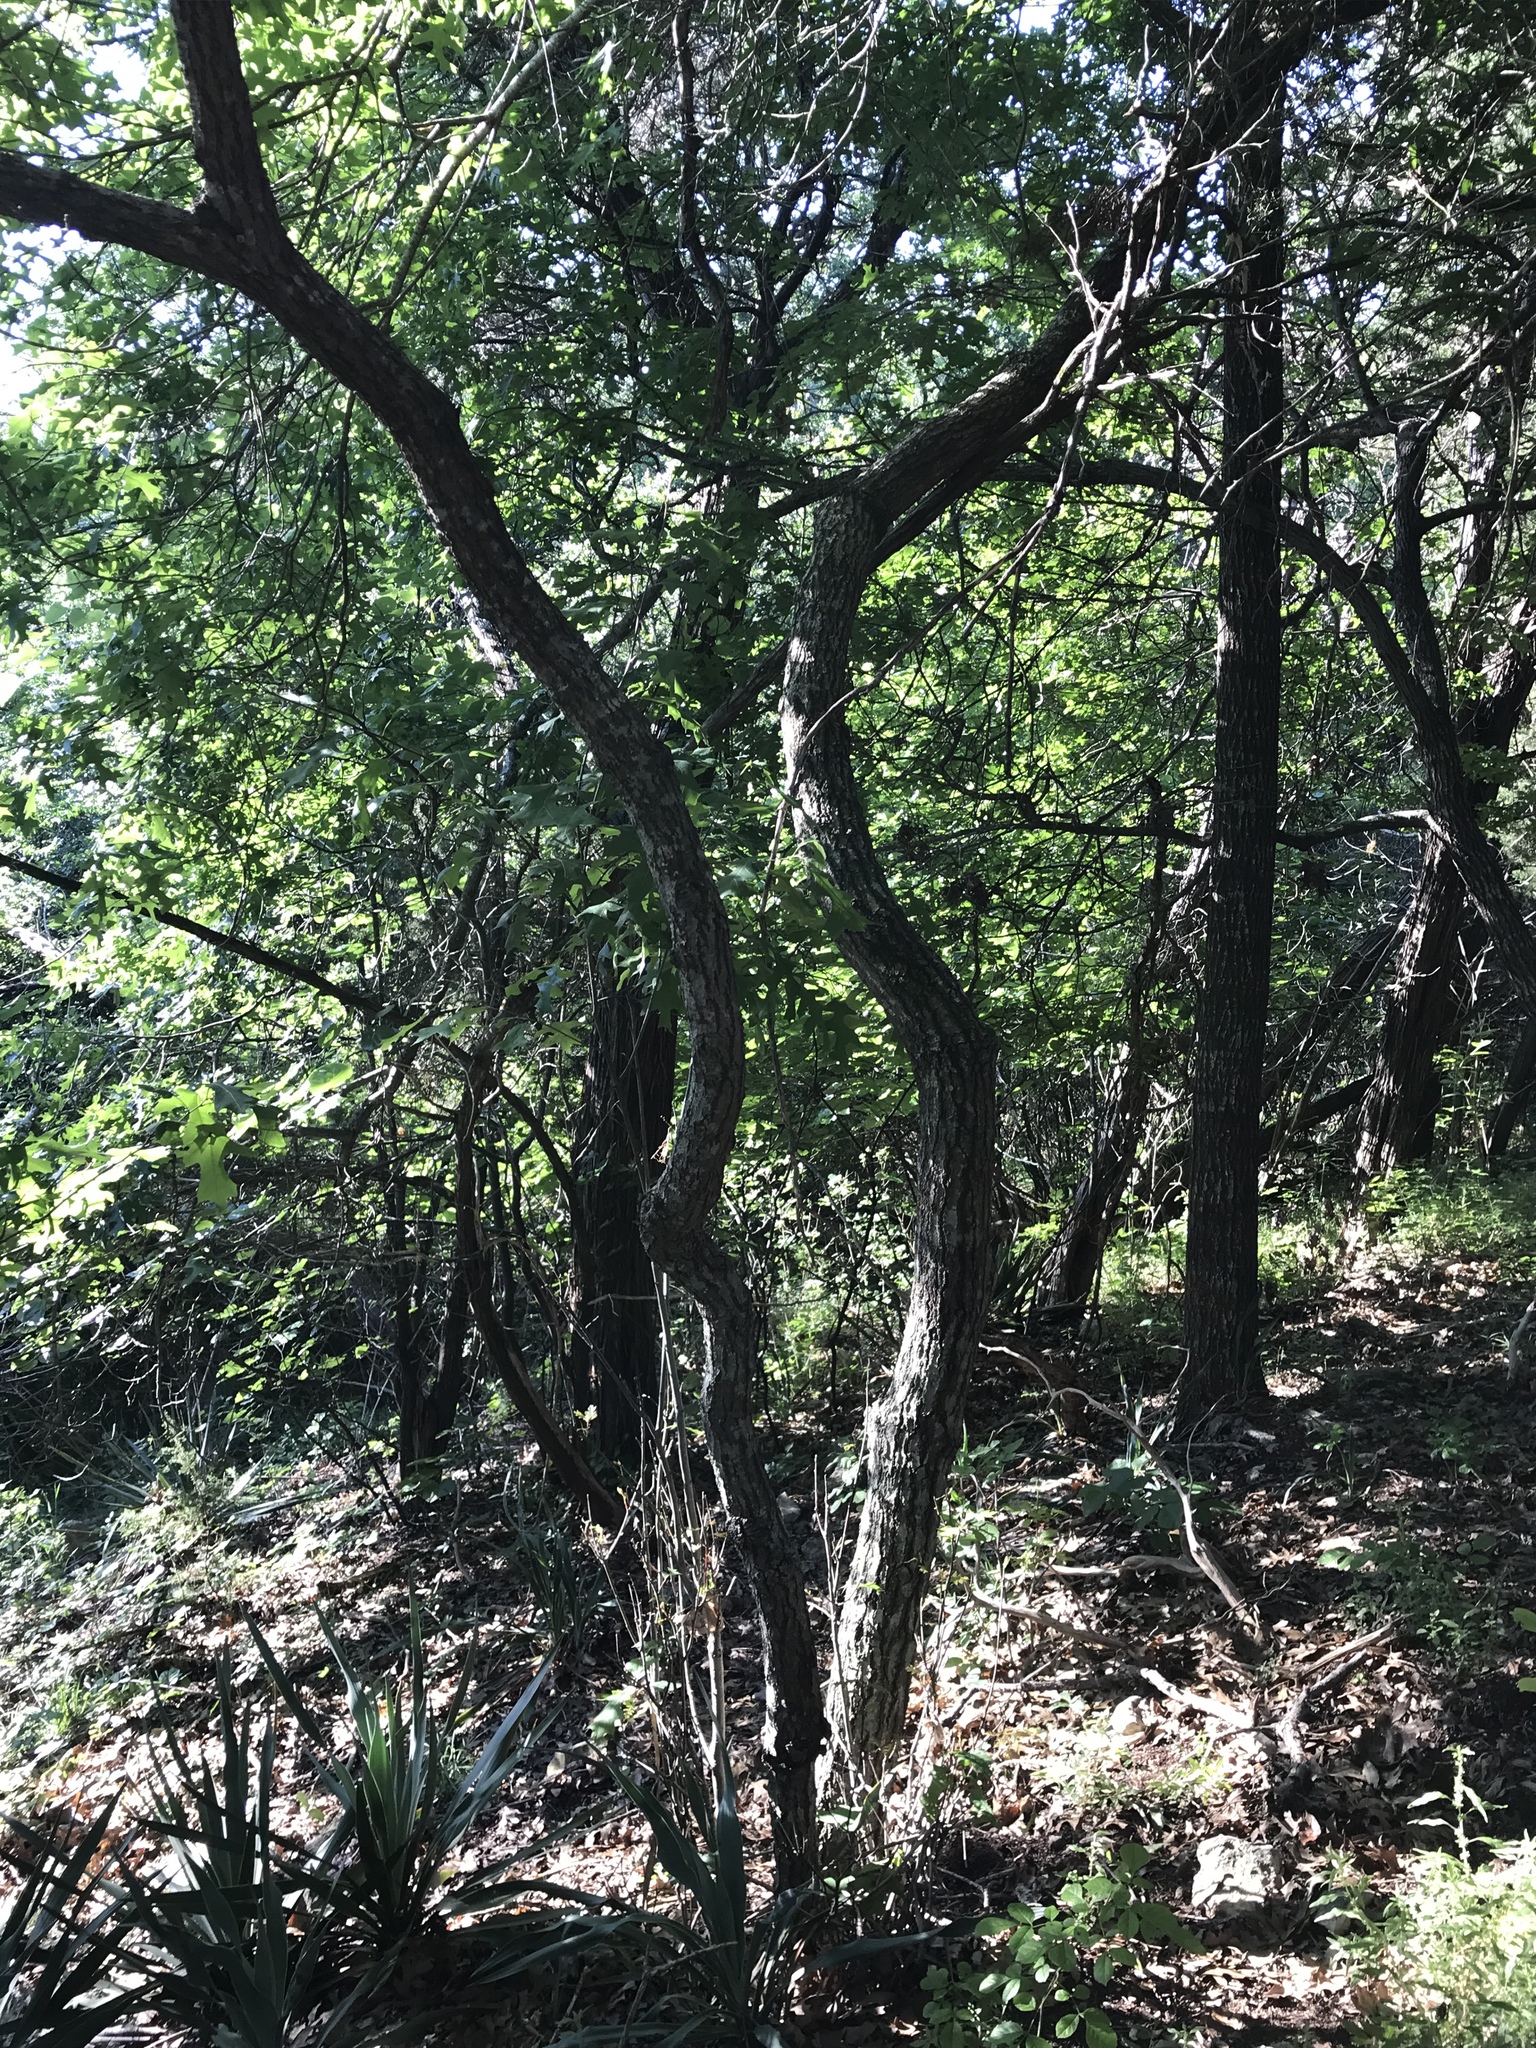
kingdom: Plantae
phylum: Tracheophyta
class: Magnoliopsida
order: Fagales
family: Fagaceae
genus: Quercus
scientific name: Quercus buckleyi
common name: Buckley oak
